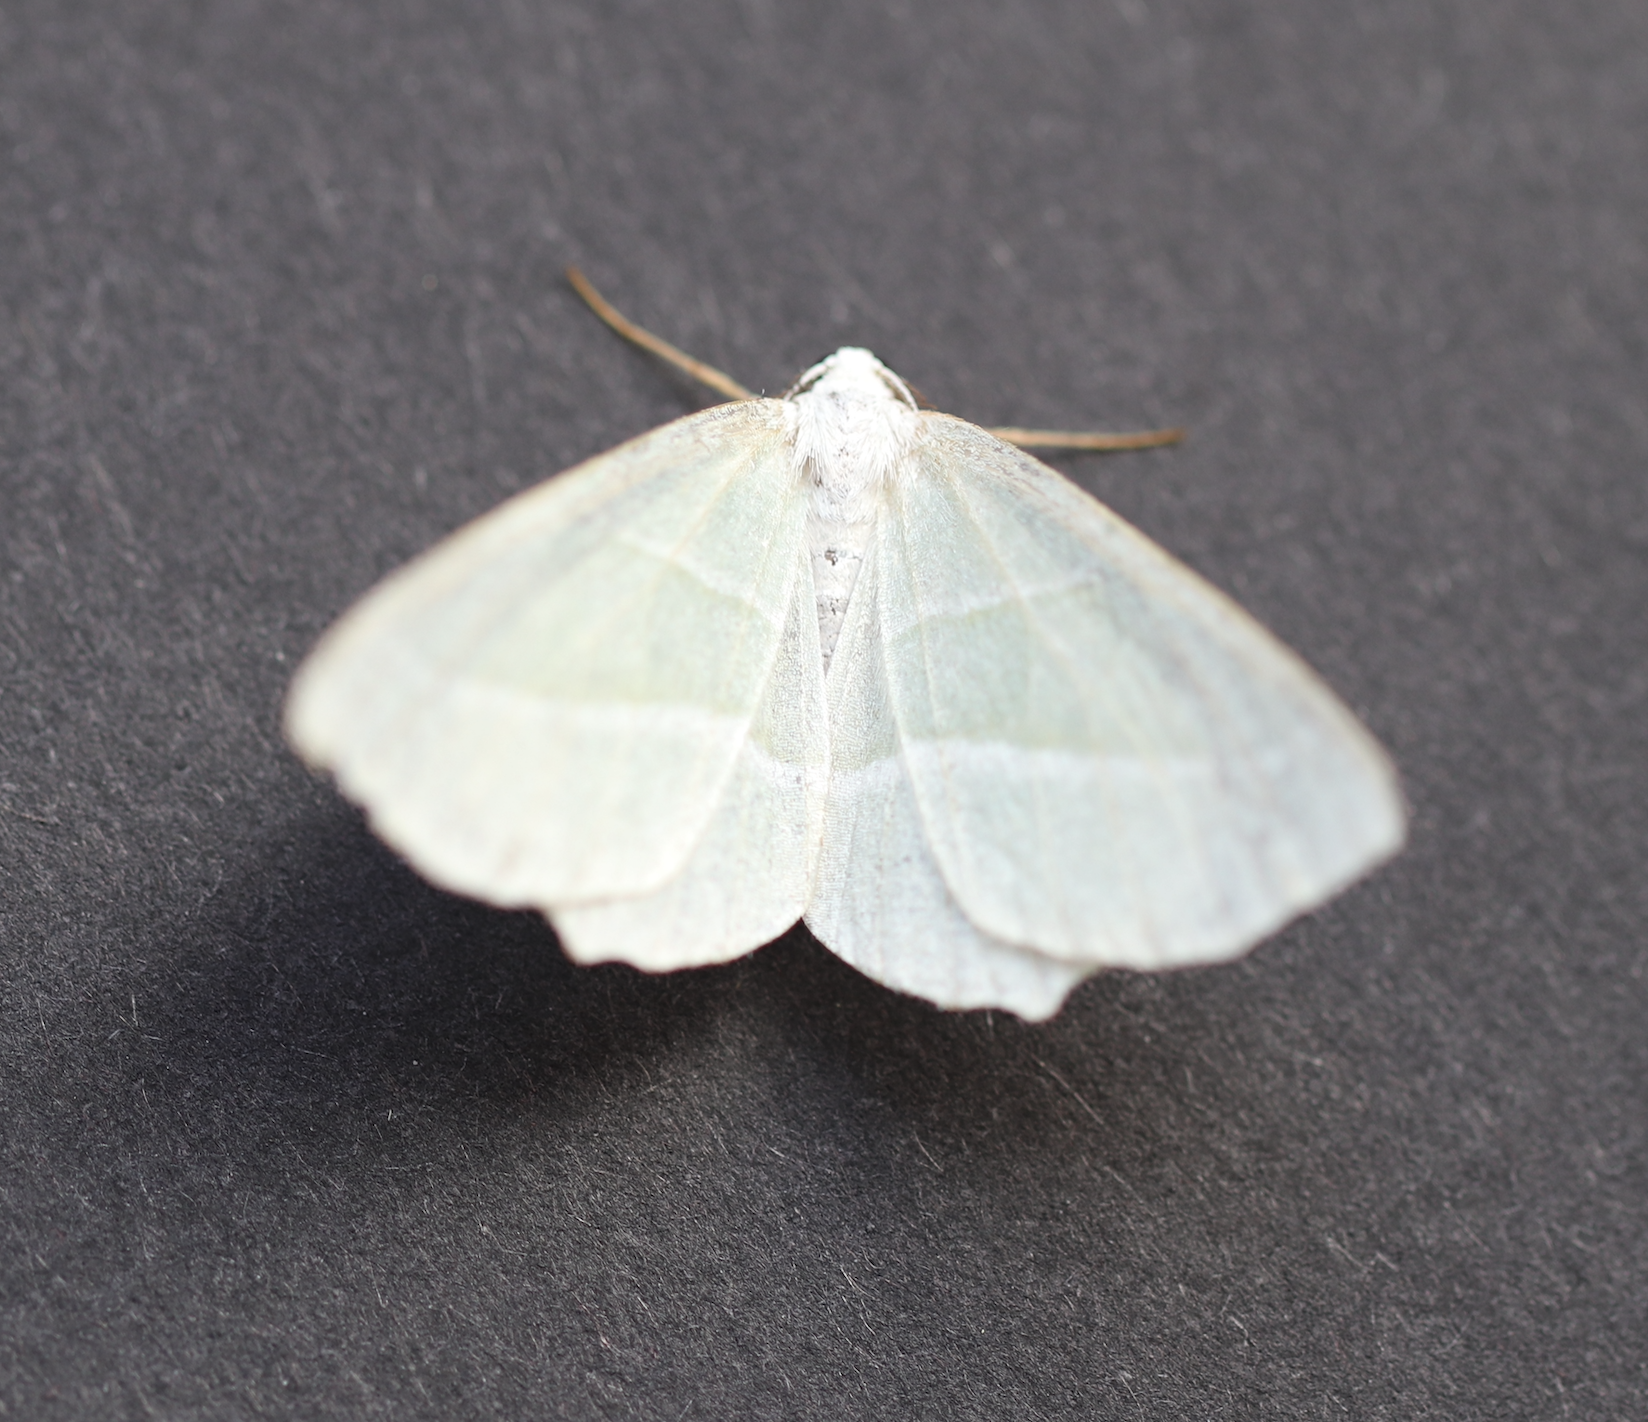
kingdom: Animalia
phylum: Arthropoda
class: Insecta
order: Lepidoptera
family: Geometridae
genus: Campaea
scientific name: Campaea margaritaria
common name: Light emerald
